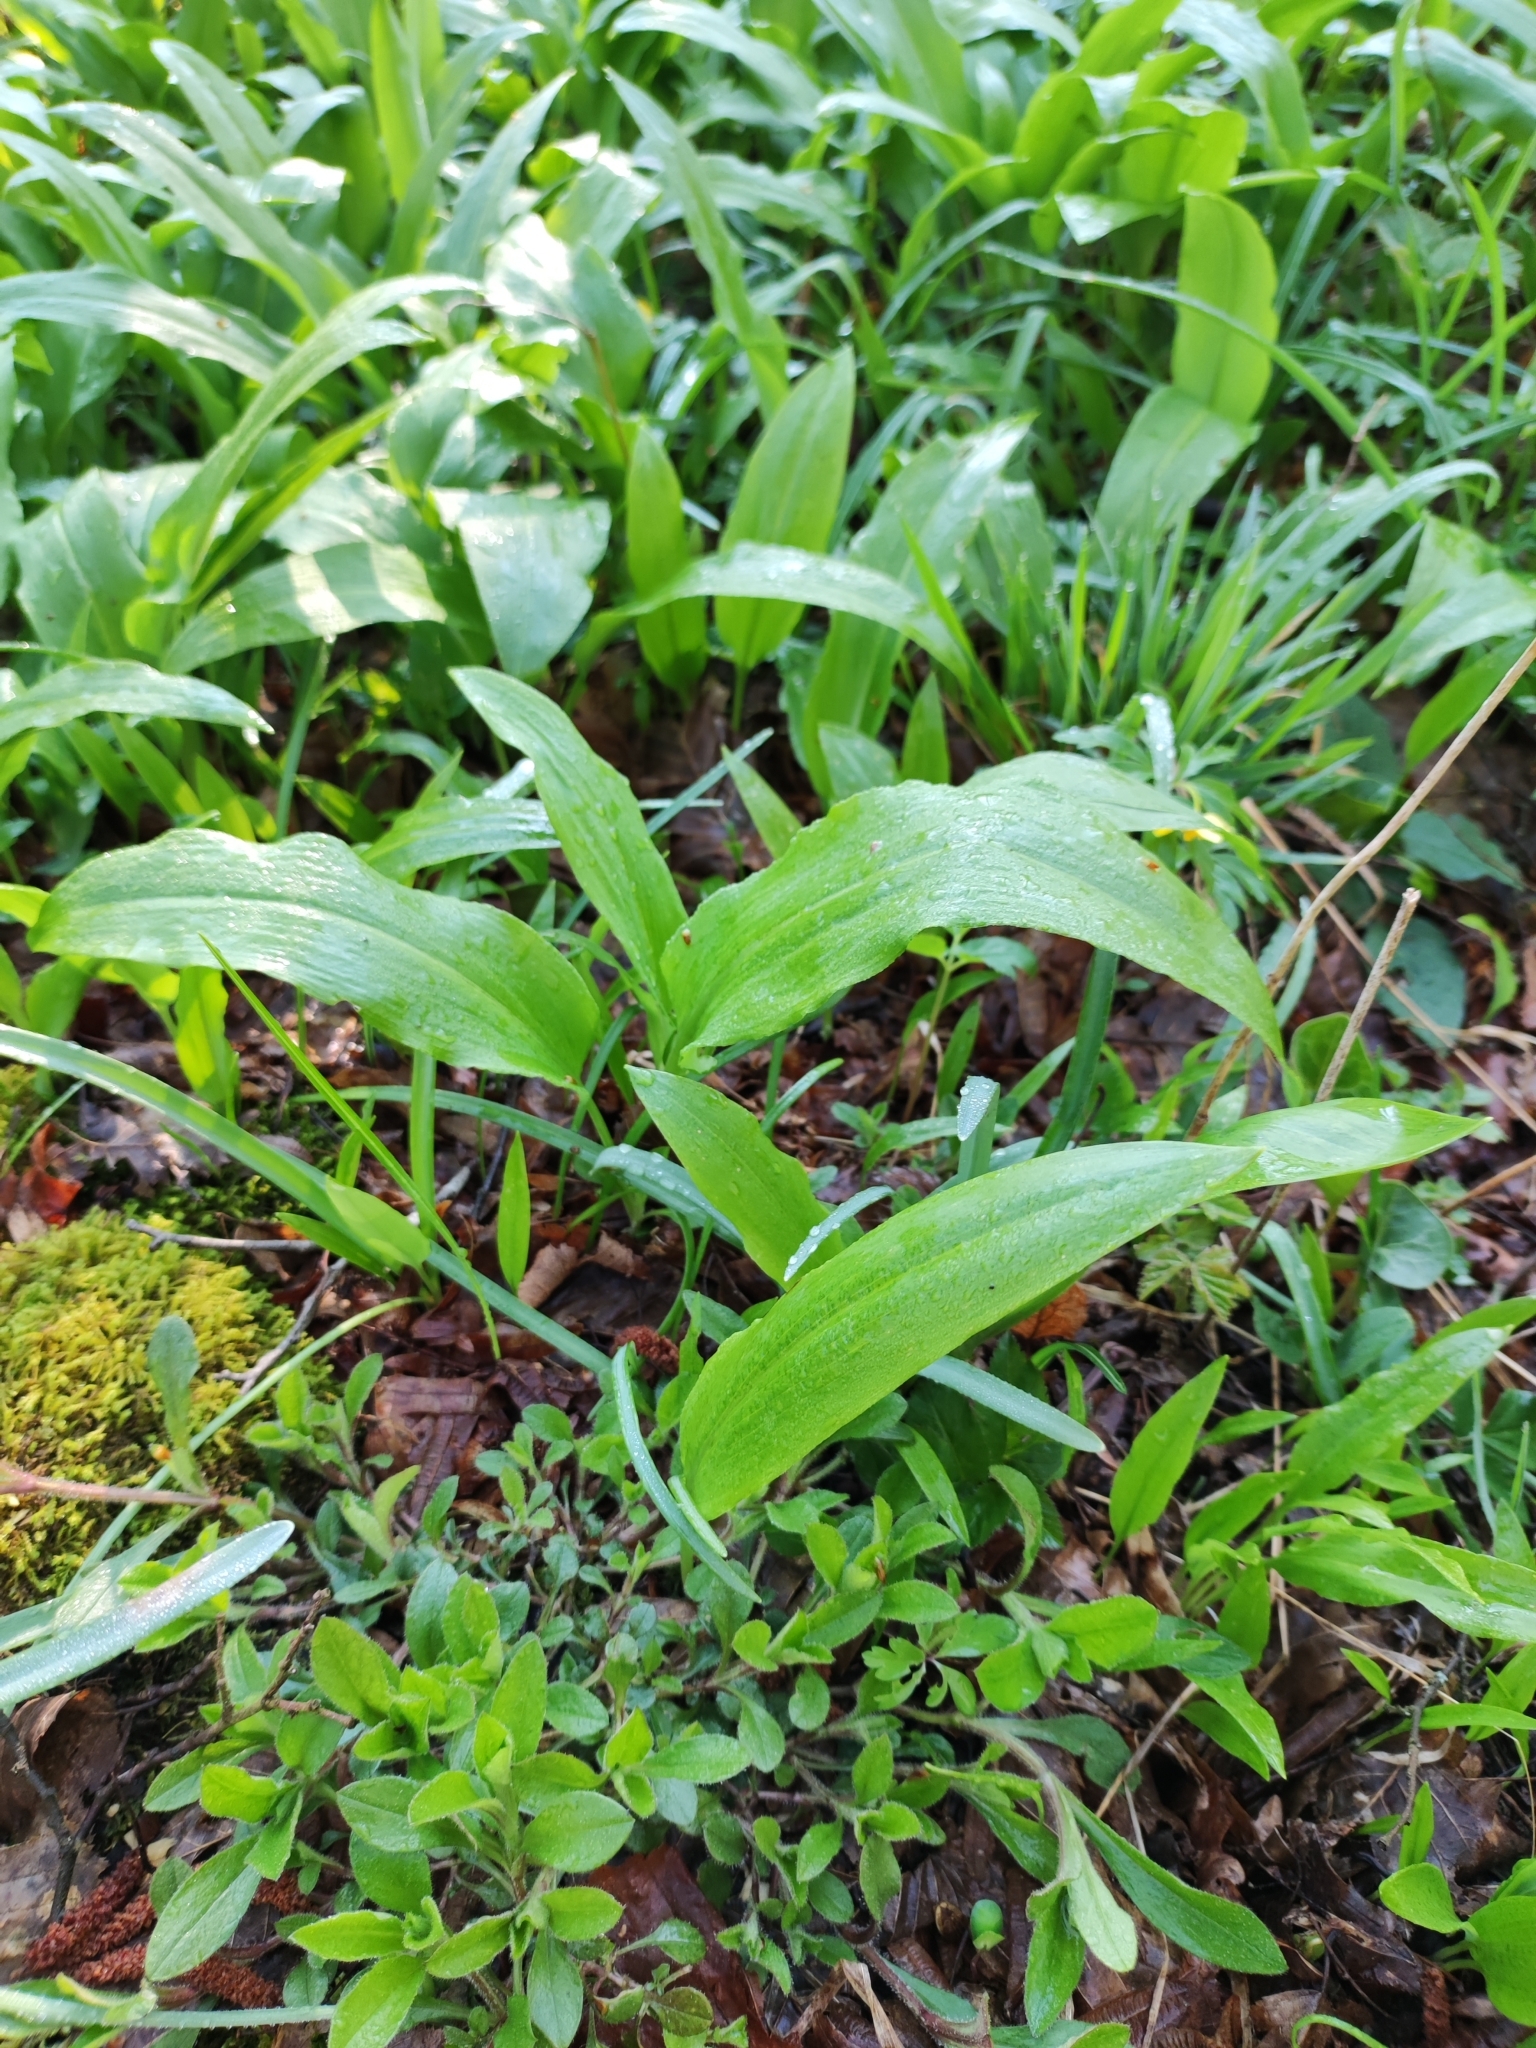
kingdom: Plantae
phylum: Tracheophyta
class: Liliopsida
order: Asparagales
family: Amaryllidaceae
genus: Allium
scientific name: Allium ursinum
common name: Ramsons
